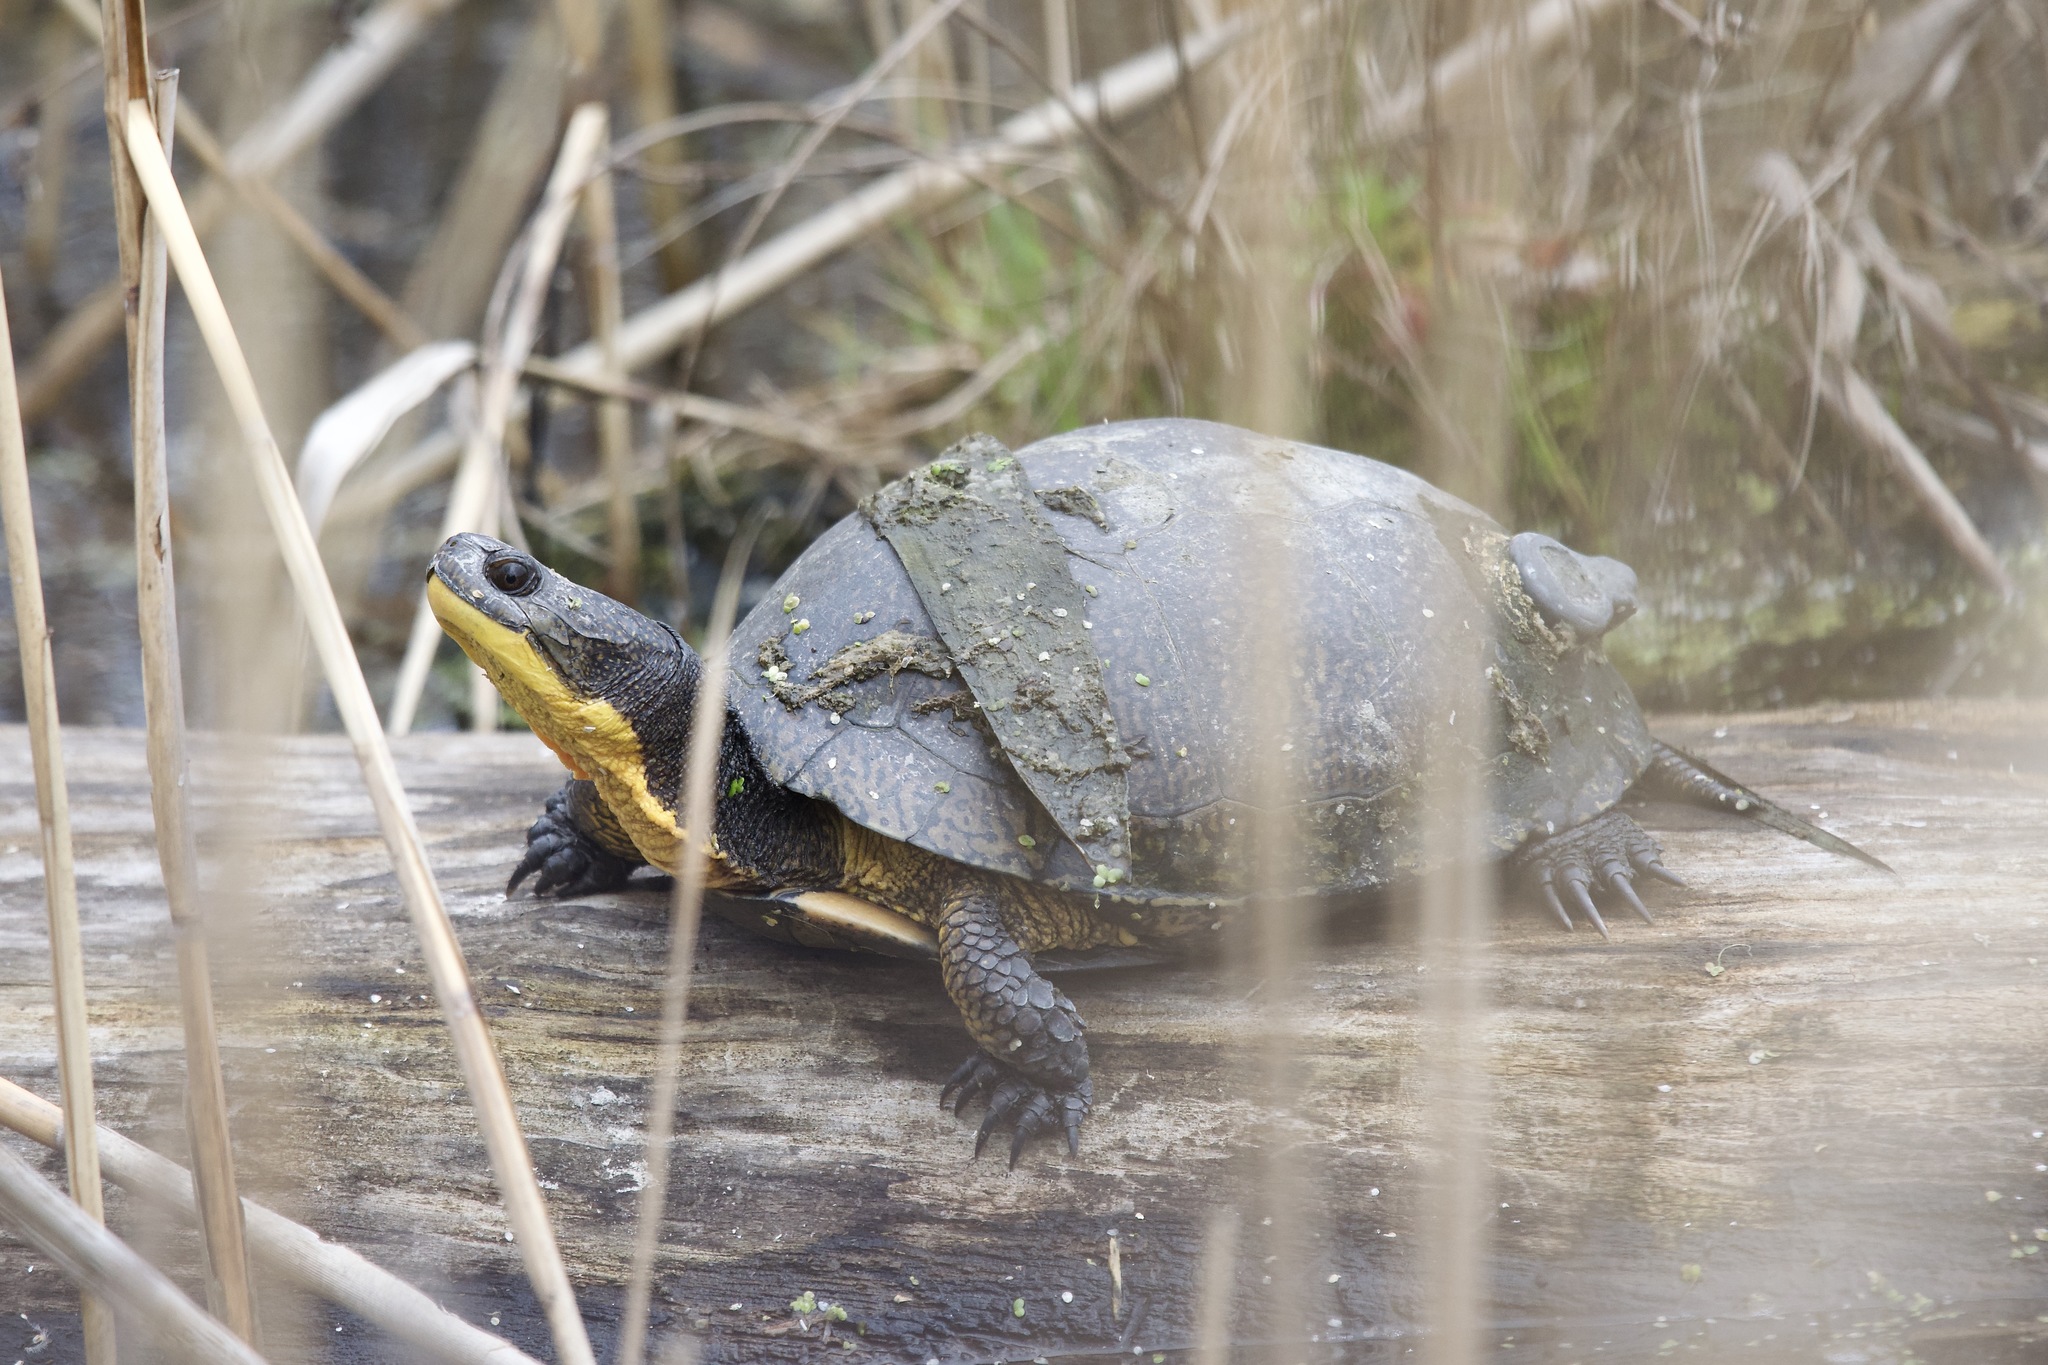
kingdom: Animalia
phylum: Chordata
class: Testudines
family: Emydidae
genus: Emys
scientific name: Emys blandingii
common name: Blanding's turtle
